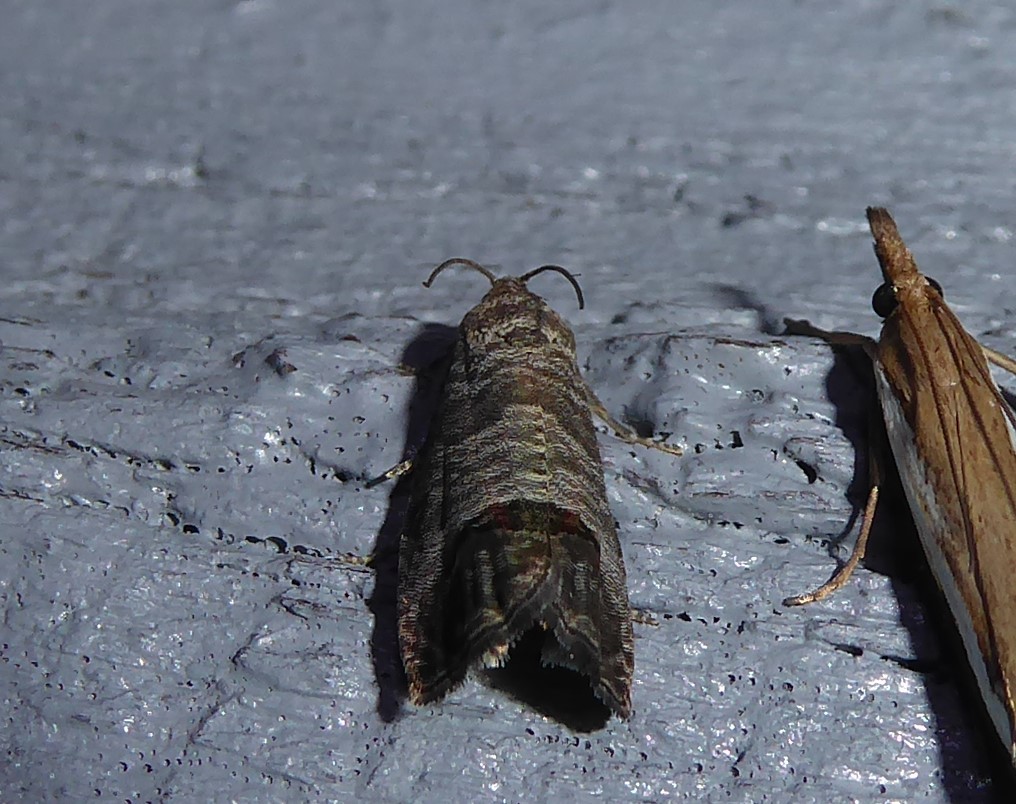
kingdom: Animalia
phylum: Arthropoda
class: Insecta
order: Lepidoptera
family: Tortricidae
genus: Cydia
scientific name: Cydia pomonella
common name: Codling moth
